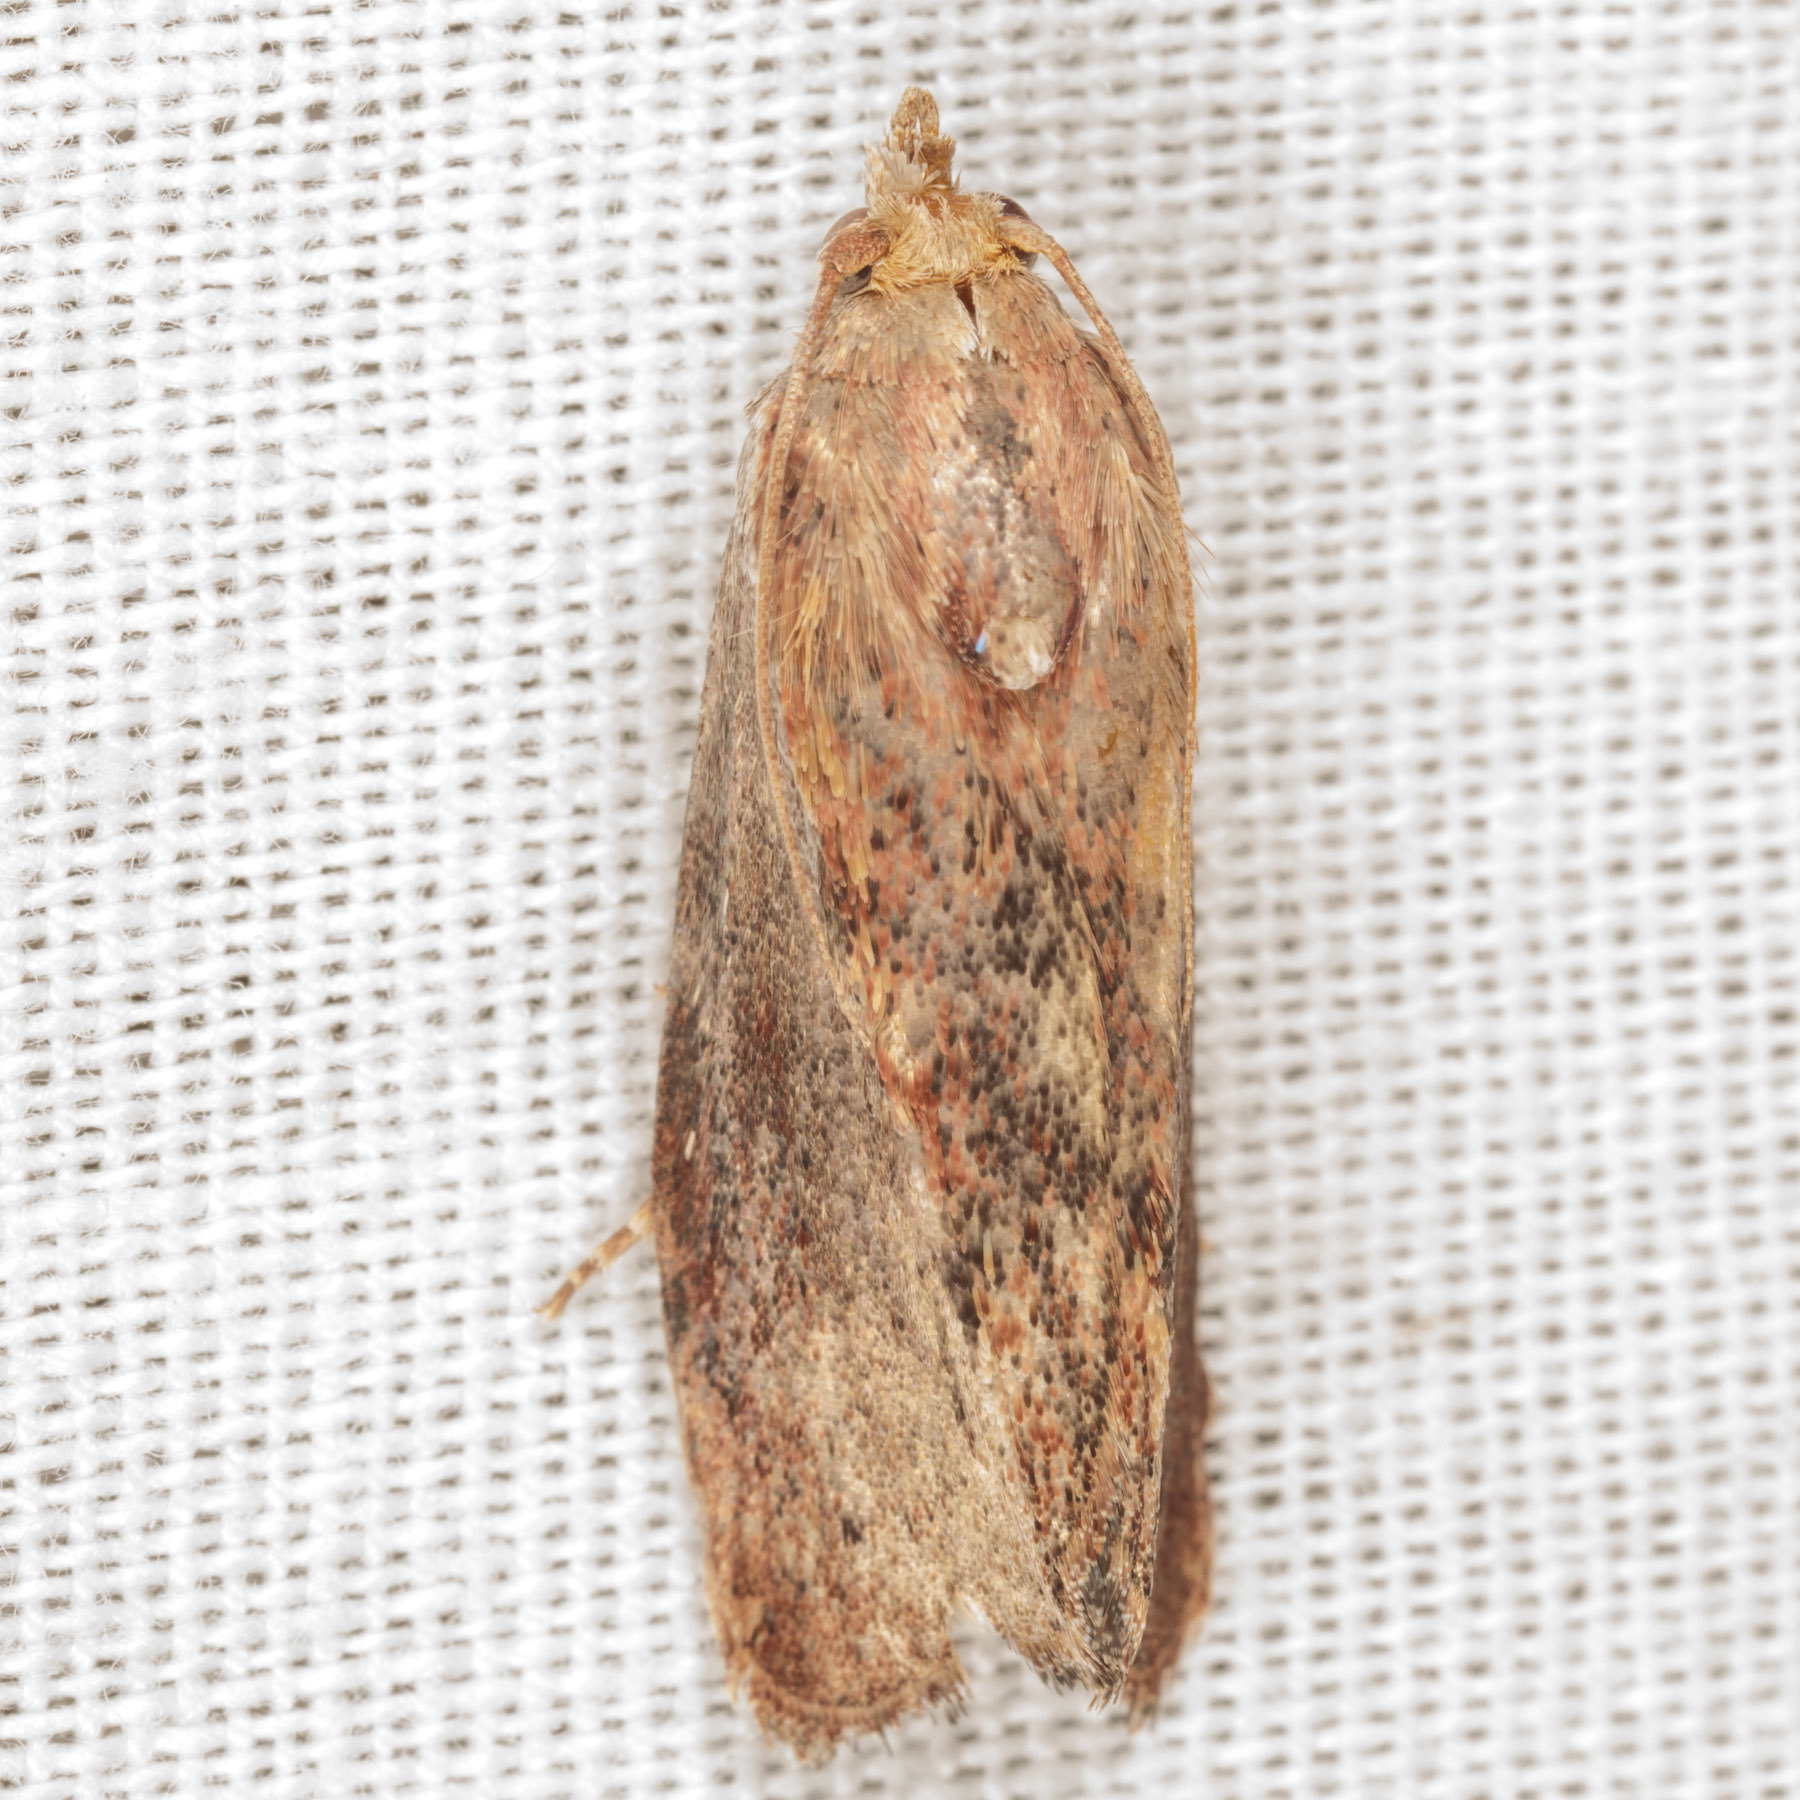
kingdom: Animalia
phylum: Arthropoda
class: Insecta
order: Lepidoptera
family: Pyralidae
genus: Galleria
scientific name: Galleria mellonella
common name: Greater wax moth
